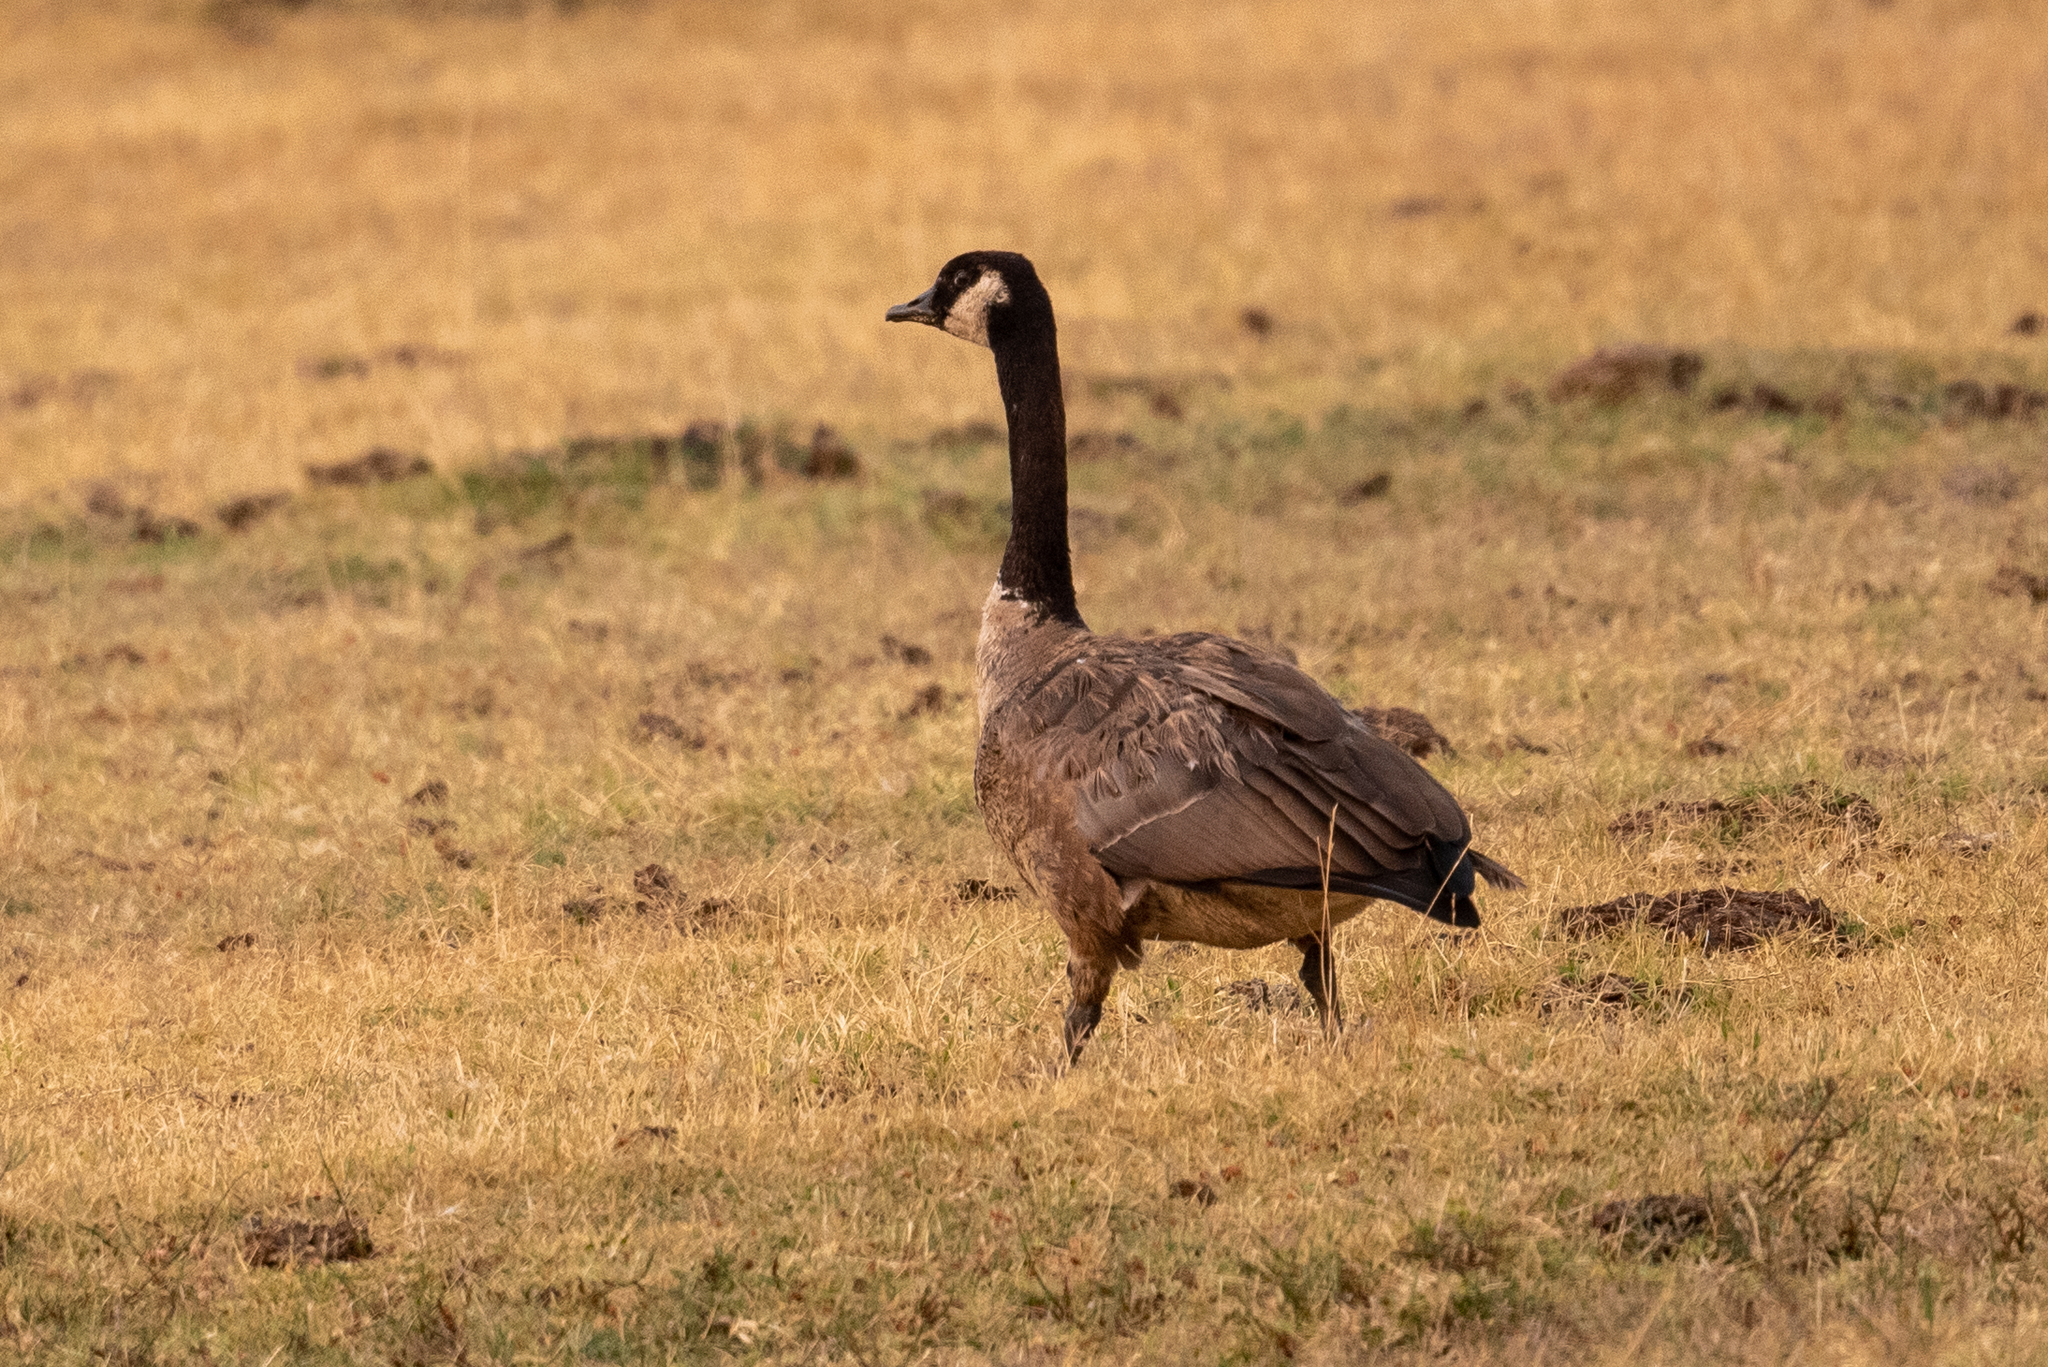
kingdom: Animalia
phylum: Chordata
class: Aves
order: Anseriformes
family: Anatidae
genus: Branta
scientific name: Branta canadensis
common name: Canada goose
